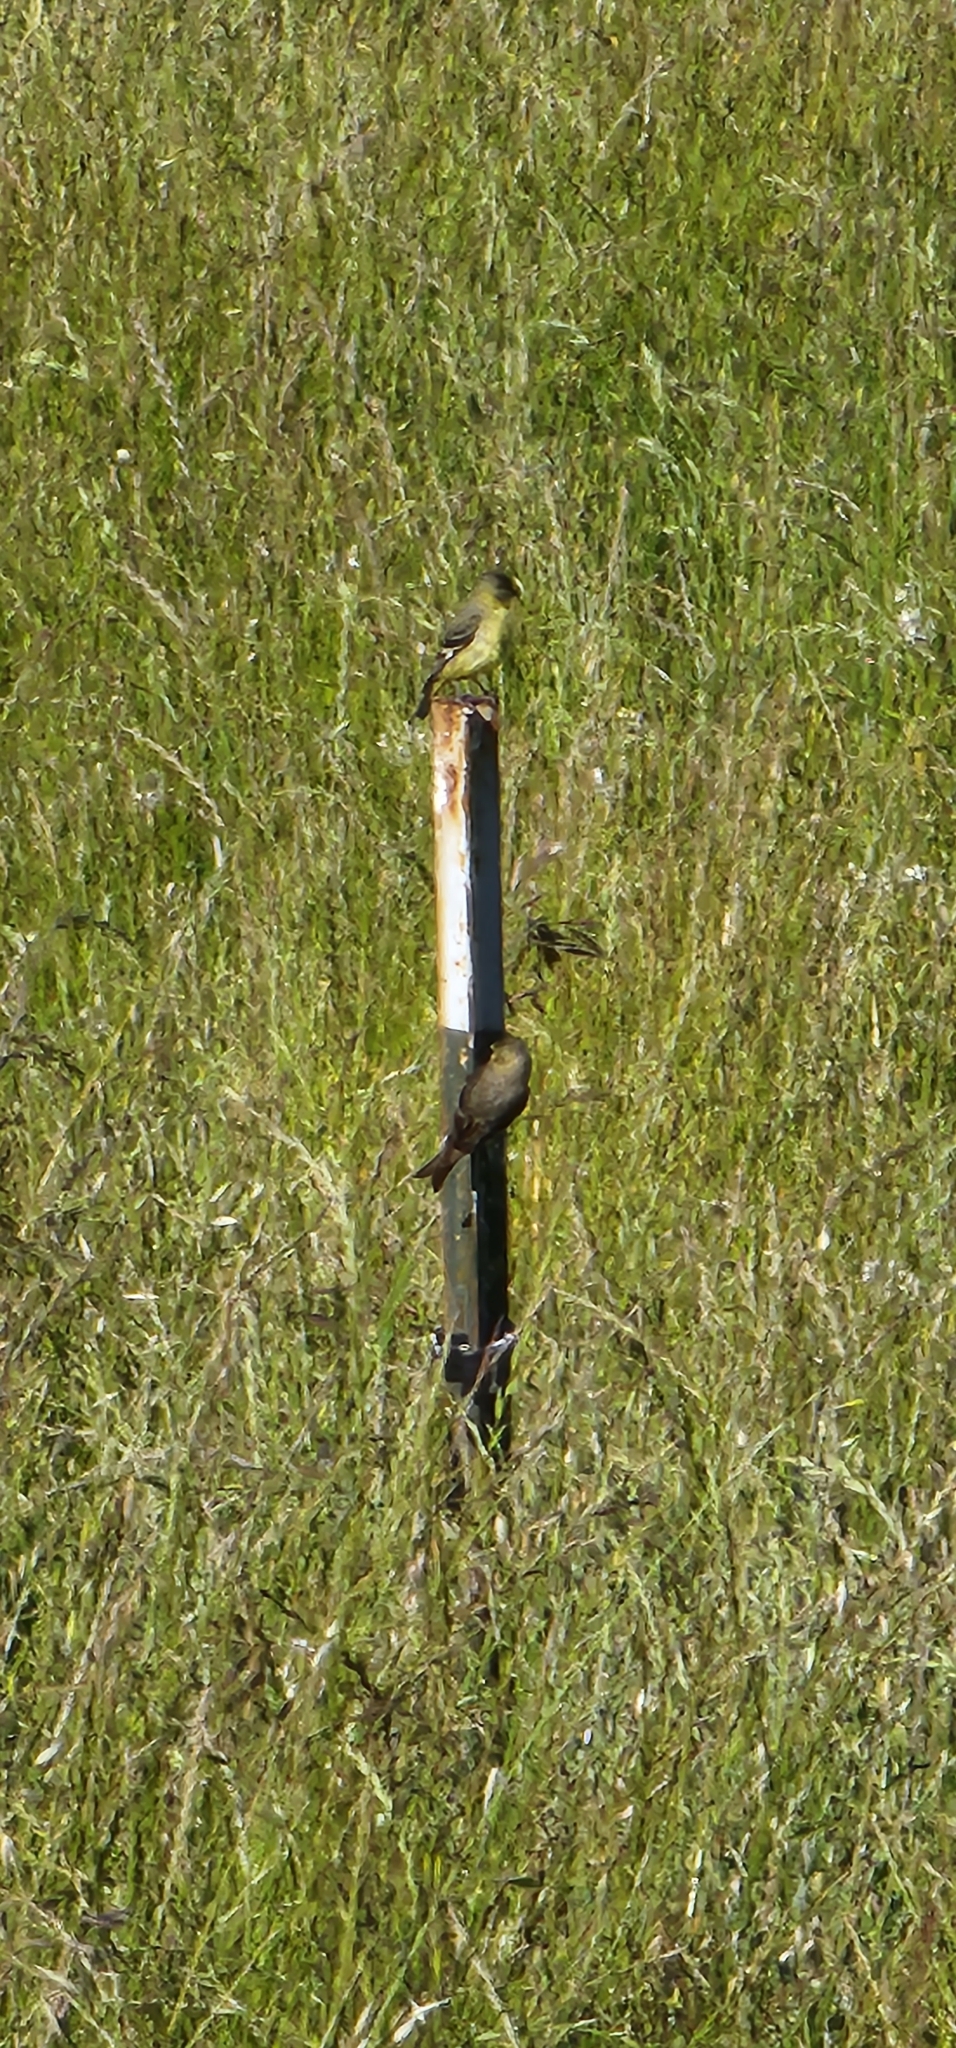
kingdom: Animalia
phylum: Chordata
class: Aves
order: Passeriformes
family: Fringillidae
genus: Spinus
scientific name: Spinus psaltria
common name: Lesser goldfinch
